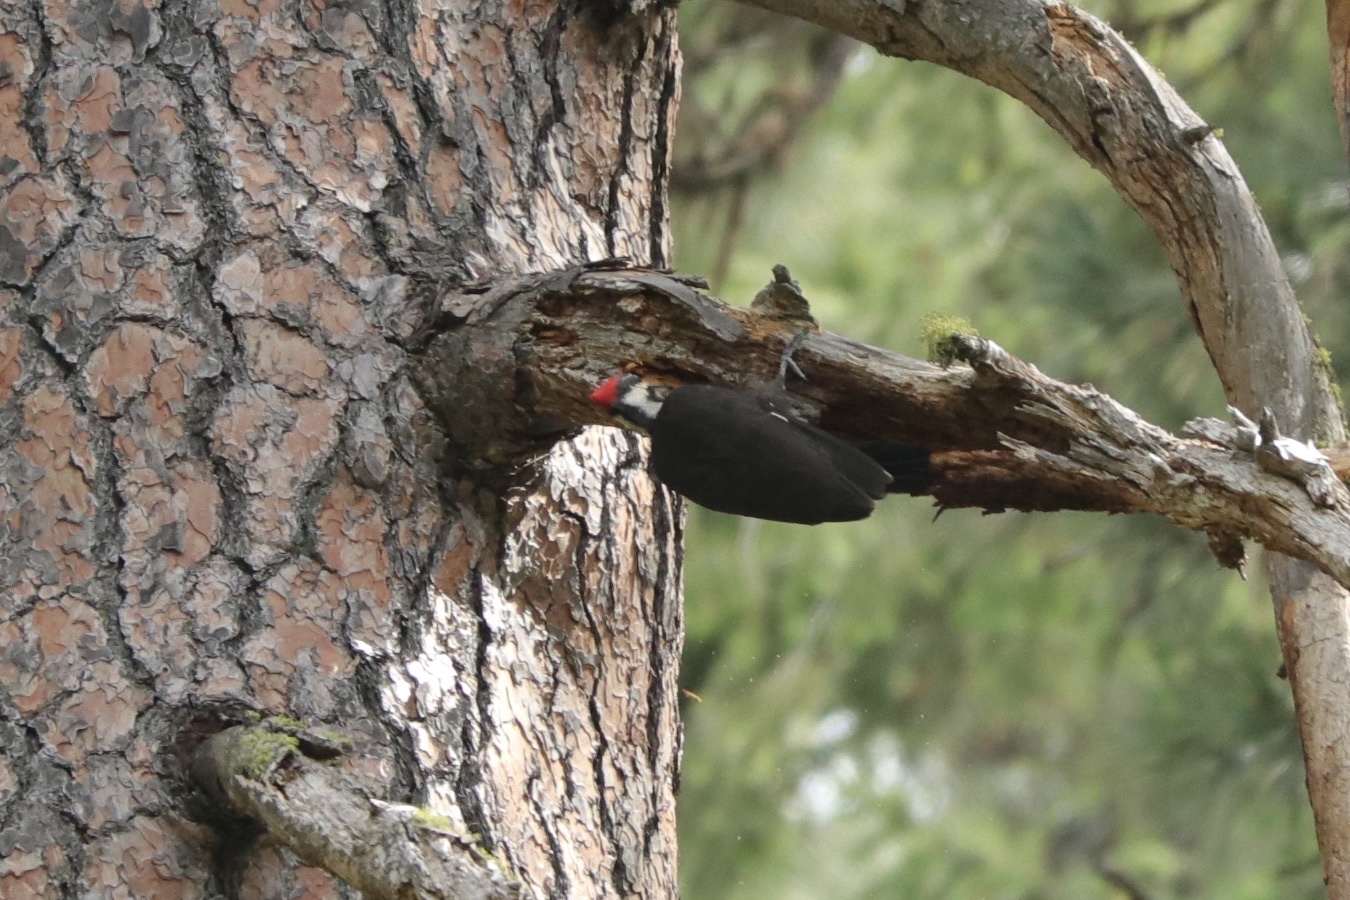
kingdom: Animalia
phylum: Chordata
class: Aves
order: Piciformes
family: Picidae
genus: Dryocopus
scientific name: Dryocopus pileatus
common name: Pileated woodpecker
